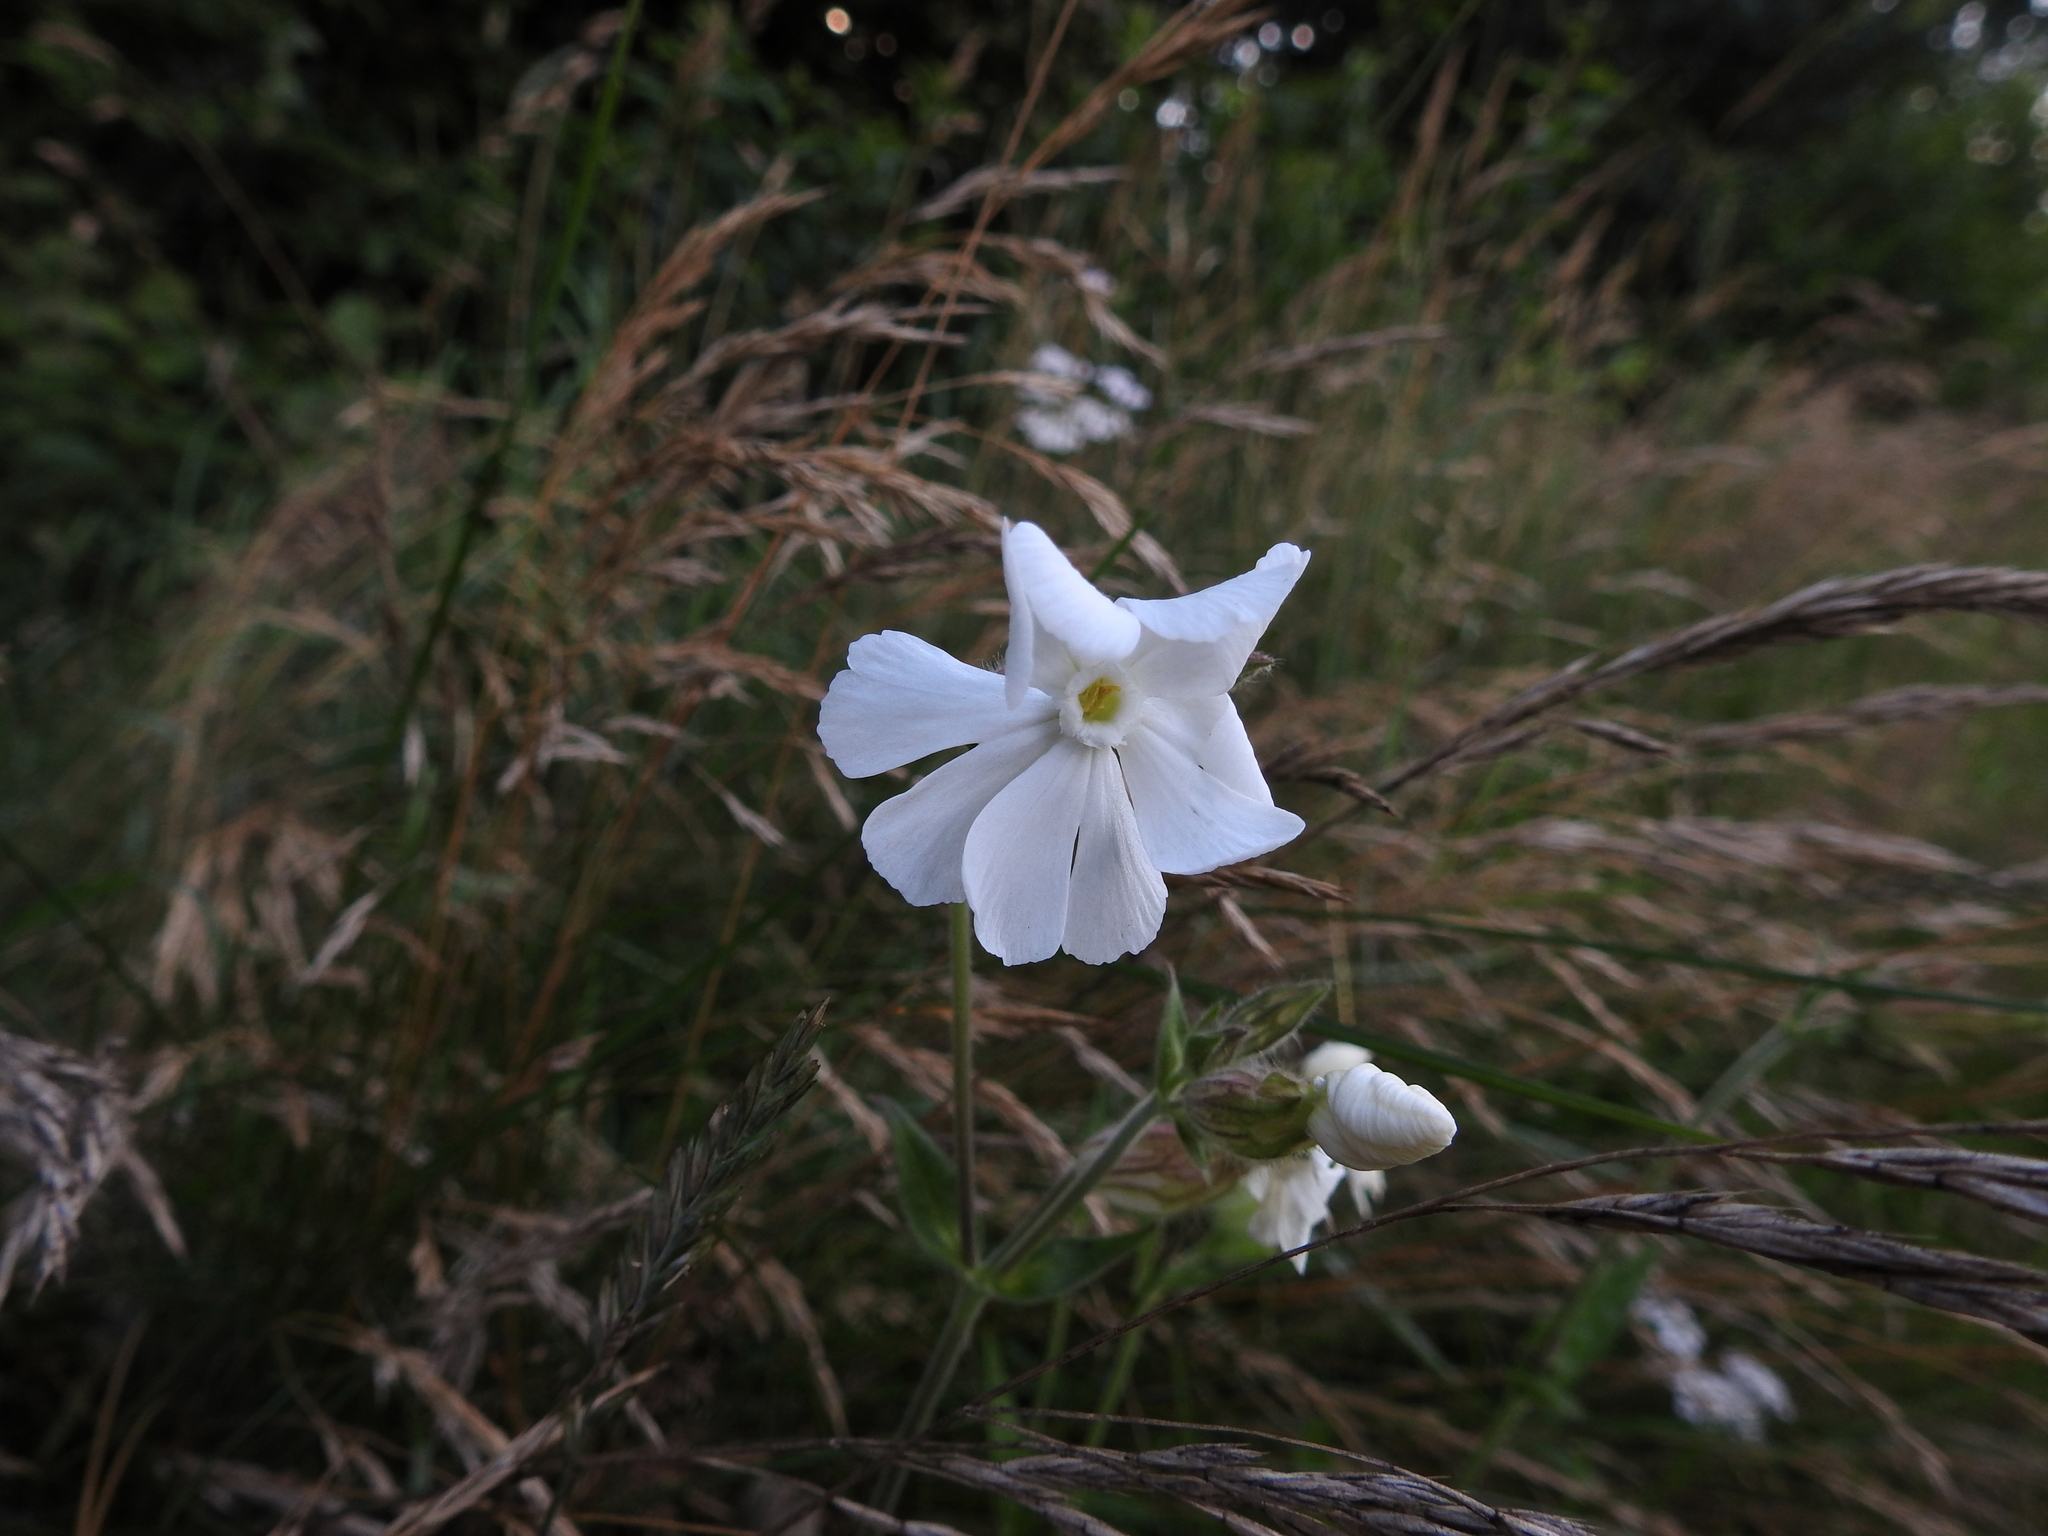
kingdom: Plantae
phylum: Tracheophyta
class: Magnoliopsida
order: Caryophyllales
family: Caryophyllaceae
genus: Silene
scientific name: Silene latifolia
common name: White campion
